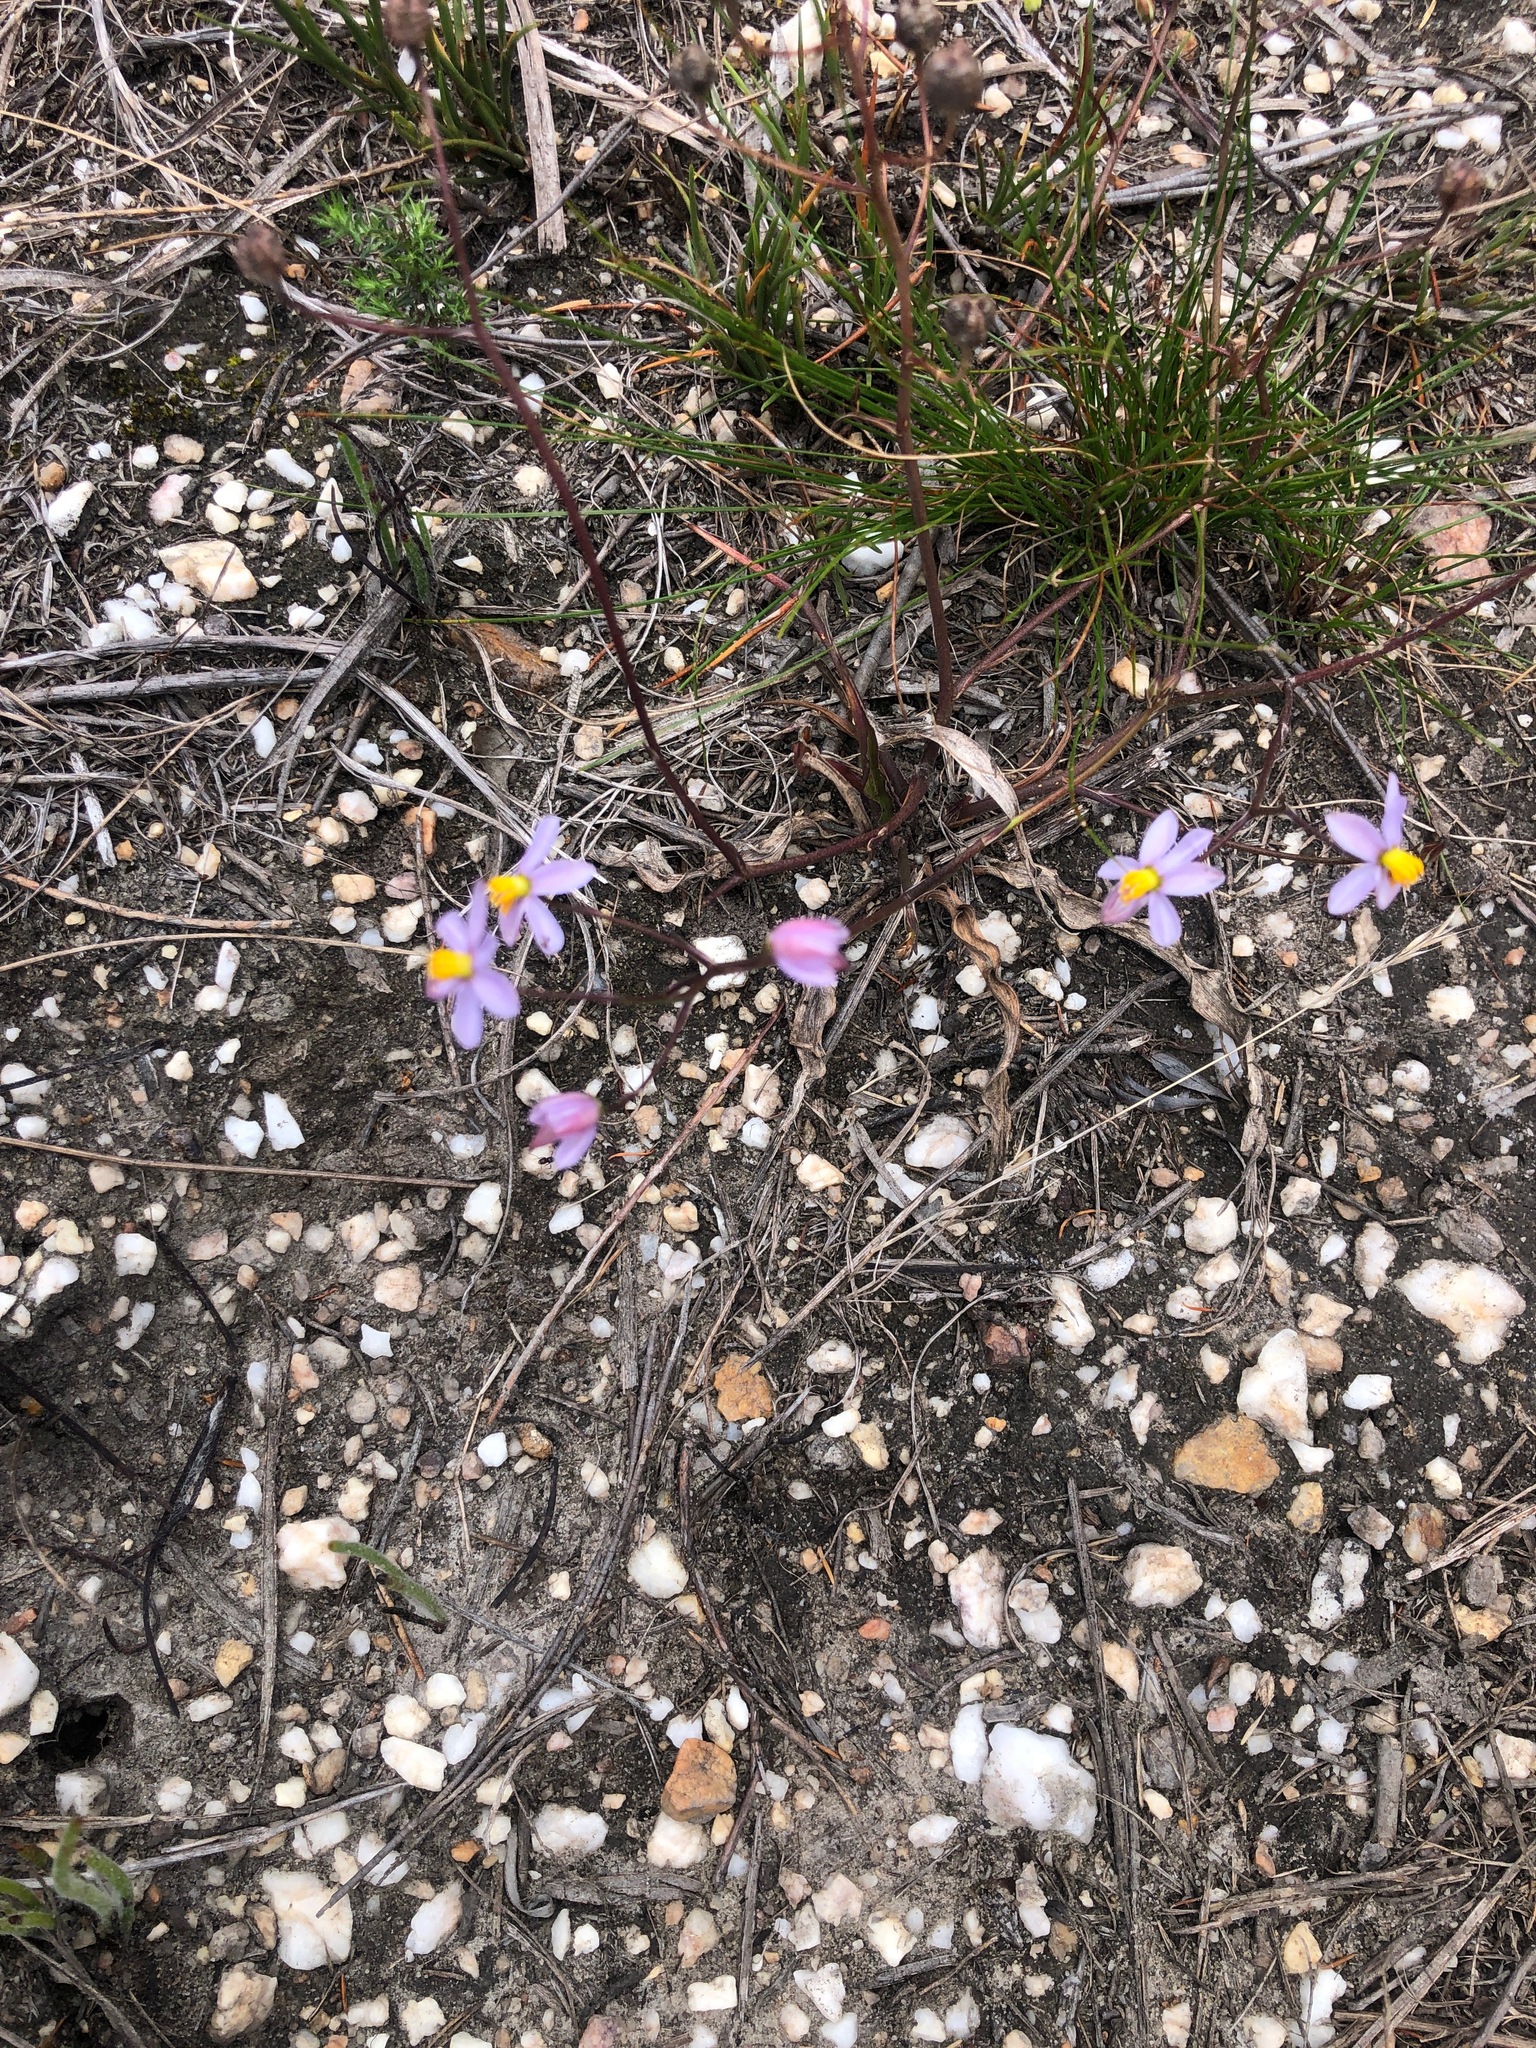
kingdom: Plantae
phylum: Tracheophyta
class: Liliopsida
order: Asparagales
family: Tecophilaeaceae
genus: Cyanella
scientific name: Cyanella hyacinthoides
